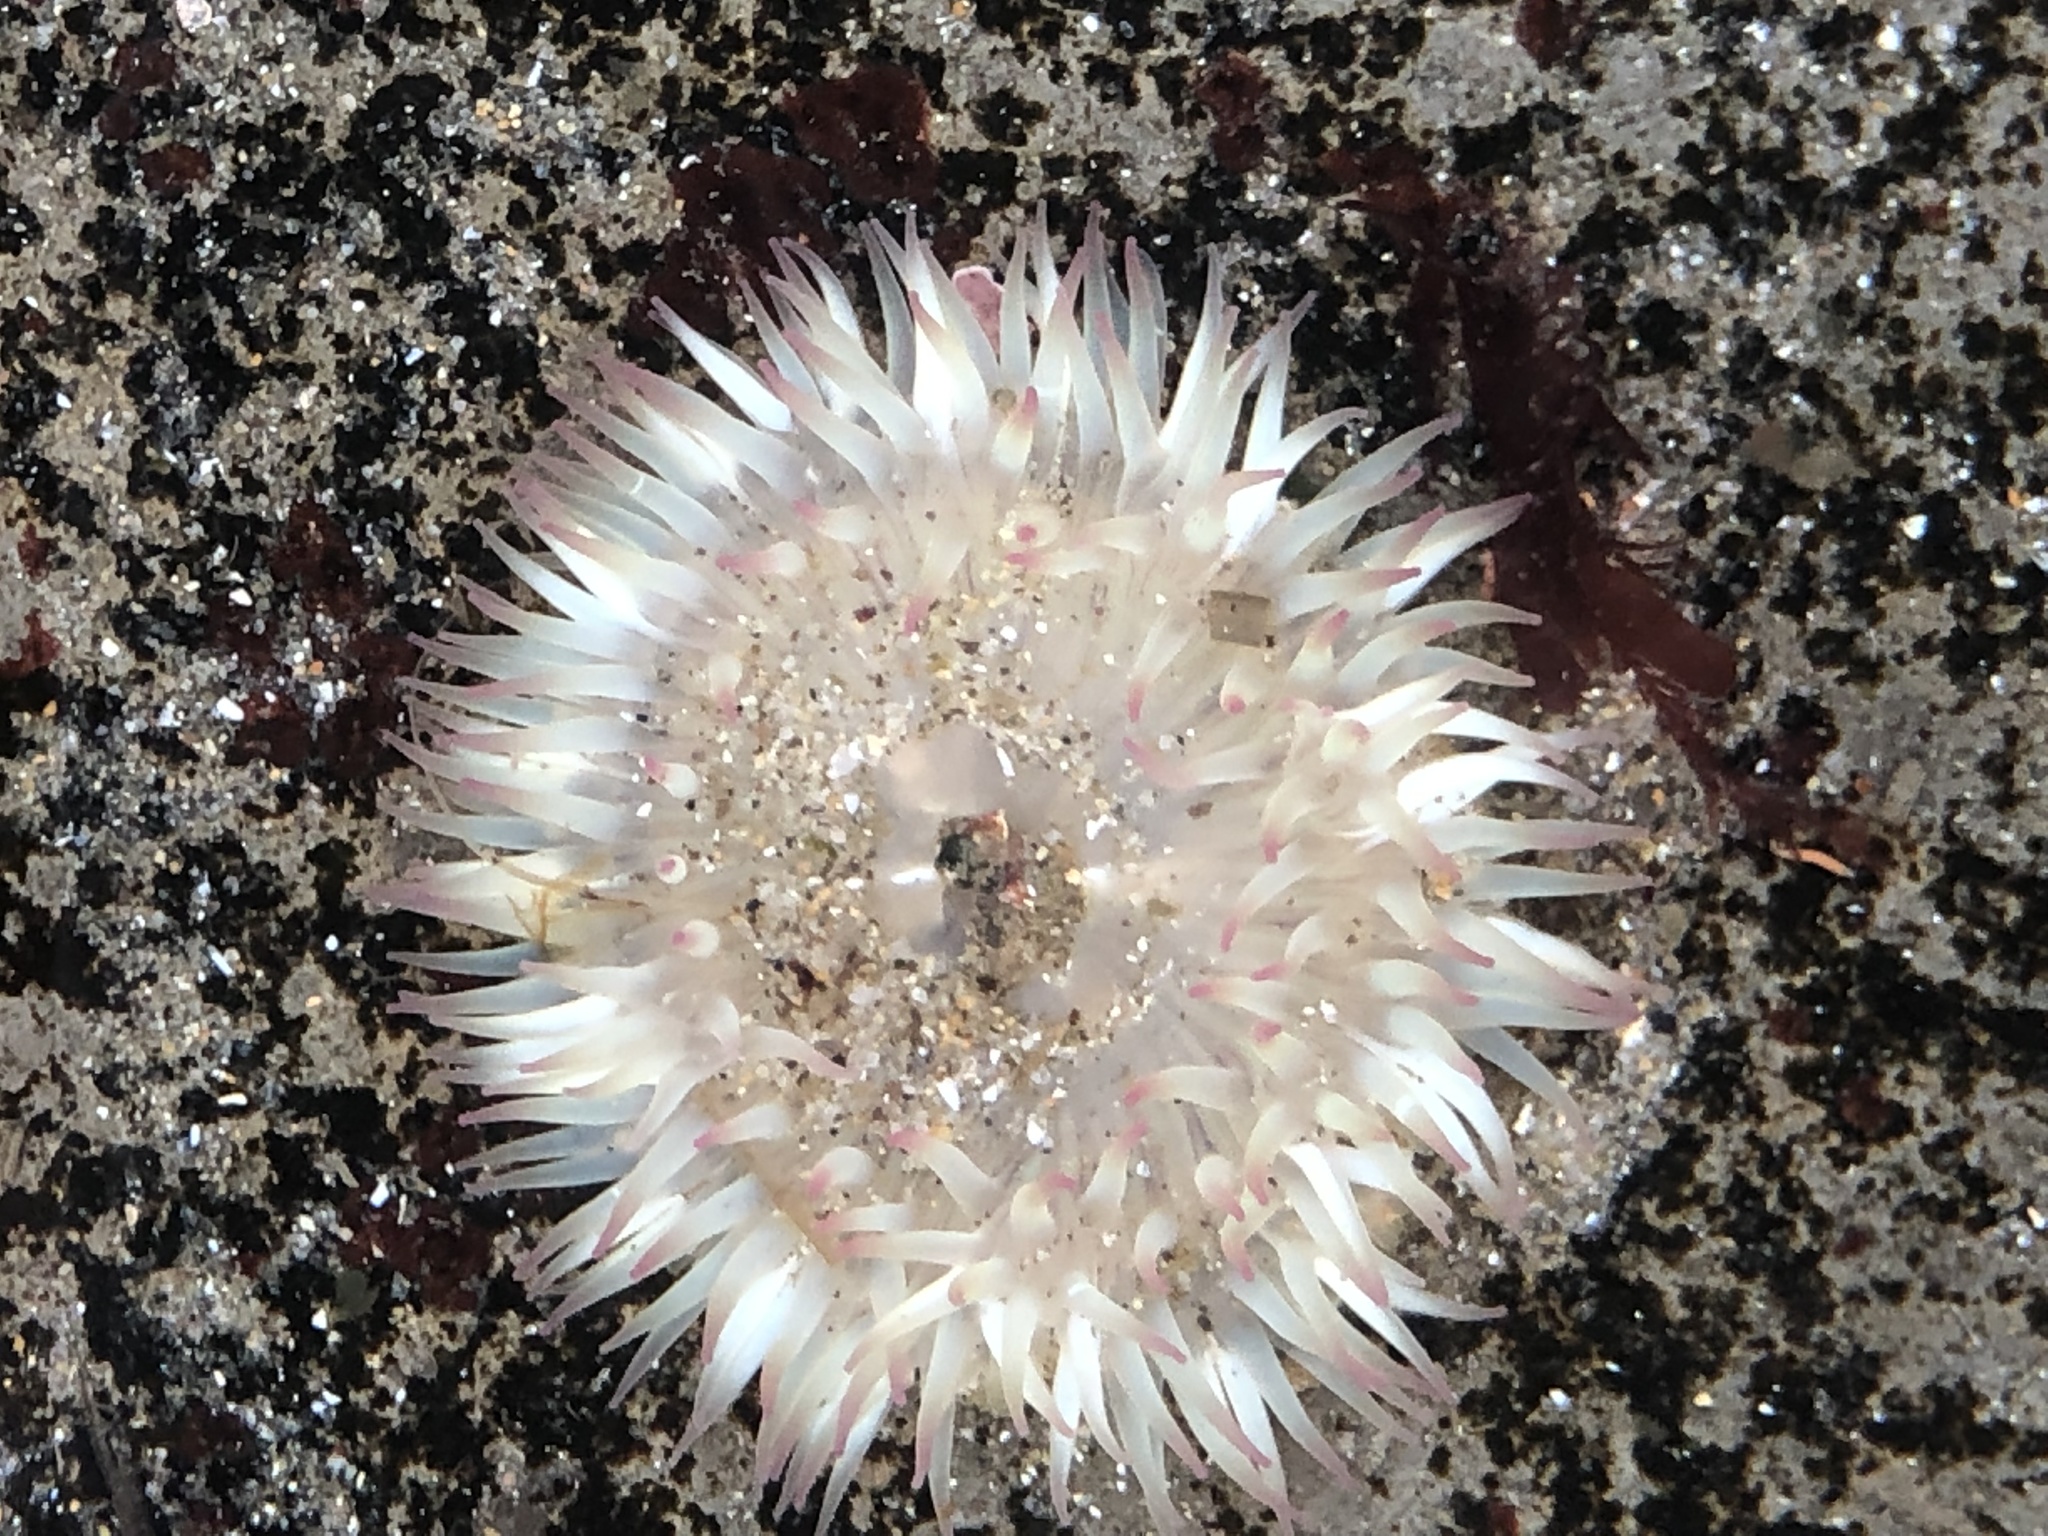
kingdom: Animalia
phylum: Cnidaria
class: Anthozoa
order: Actiniaria
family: Actiniidae
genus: Anthopleura
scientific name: Anthopleura elegantissima
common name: Clonal anemone
